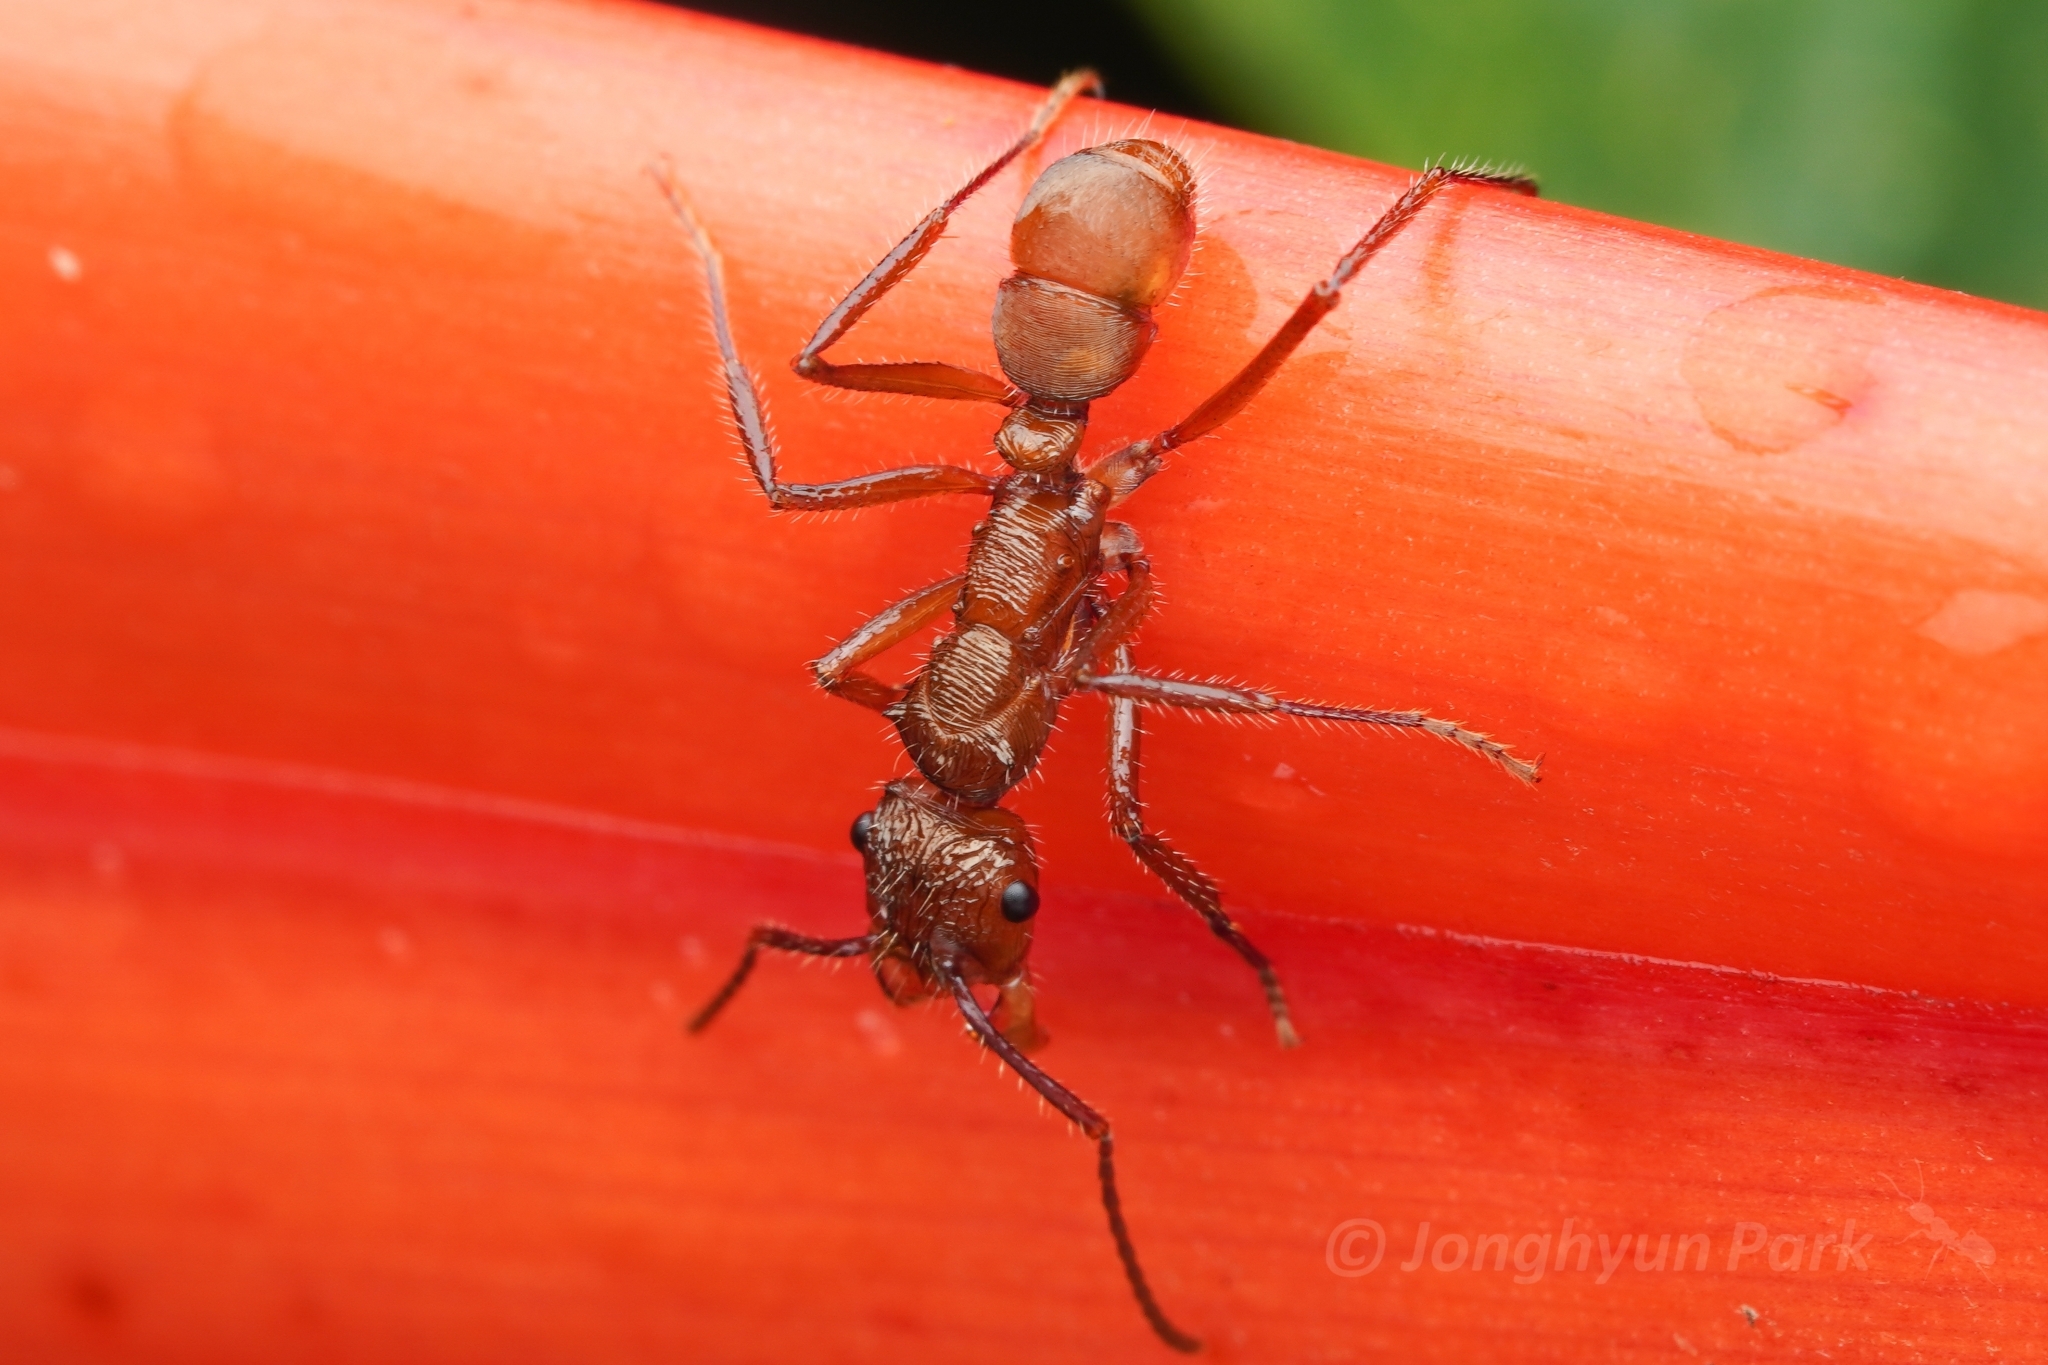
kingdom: Animalia
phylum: Arthropoda
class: Insecta
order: Hymenoptera
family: Formicidae
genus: Ectatomma
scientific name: Ectatomma tuberculatum
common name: Ant
